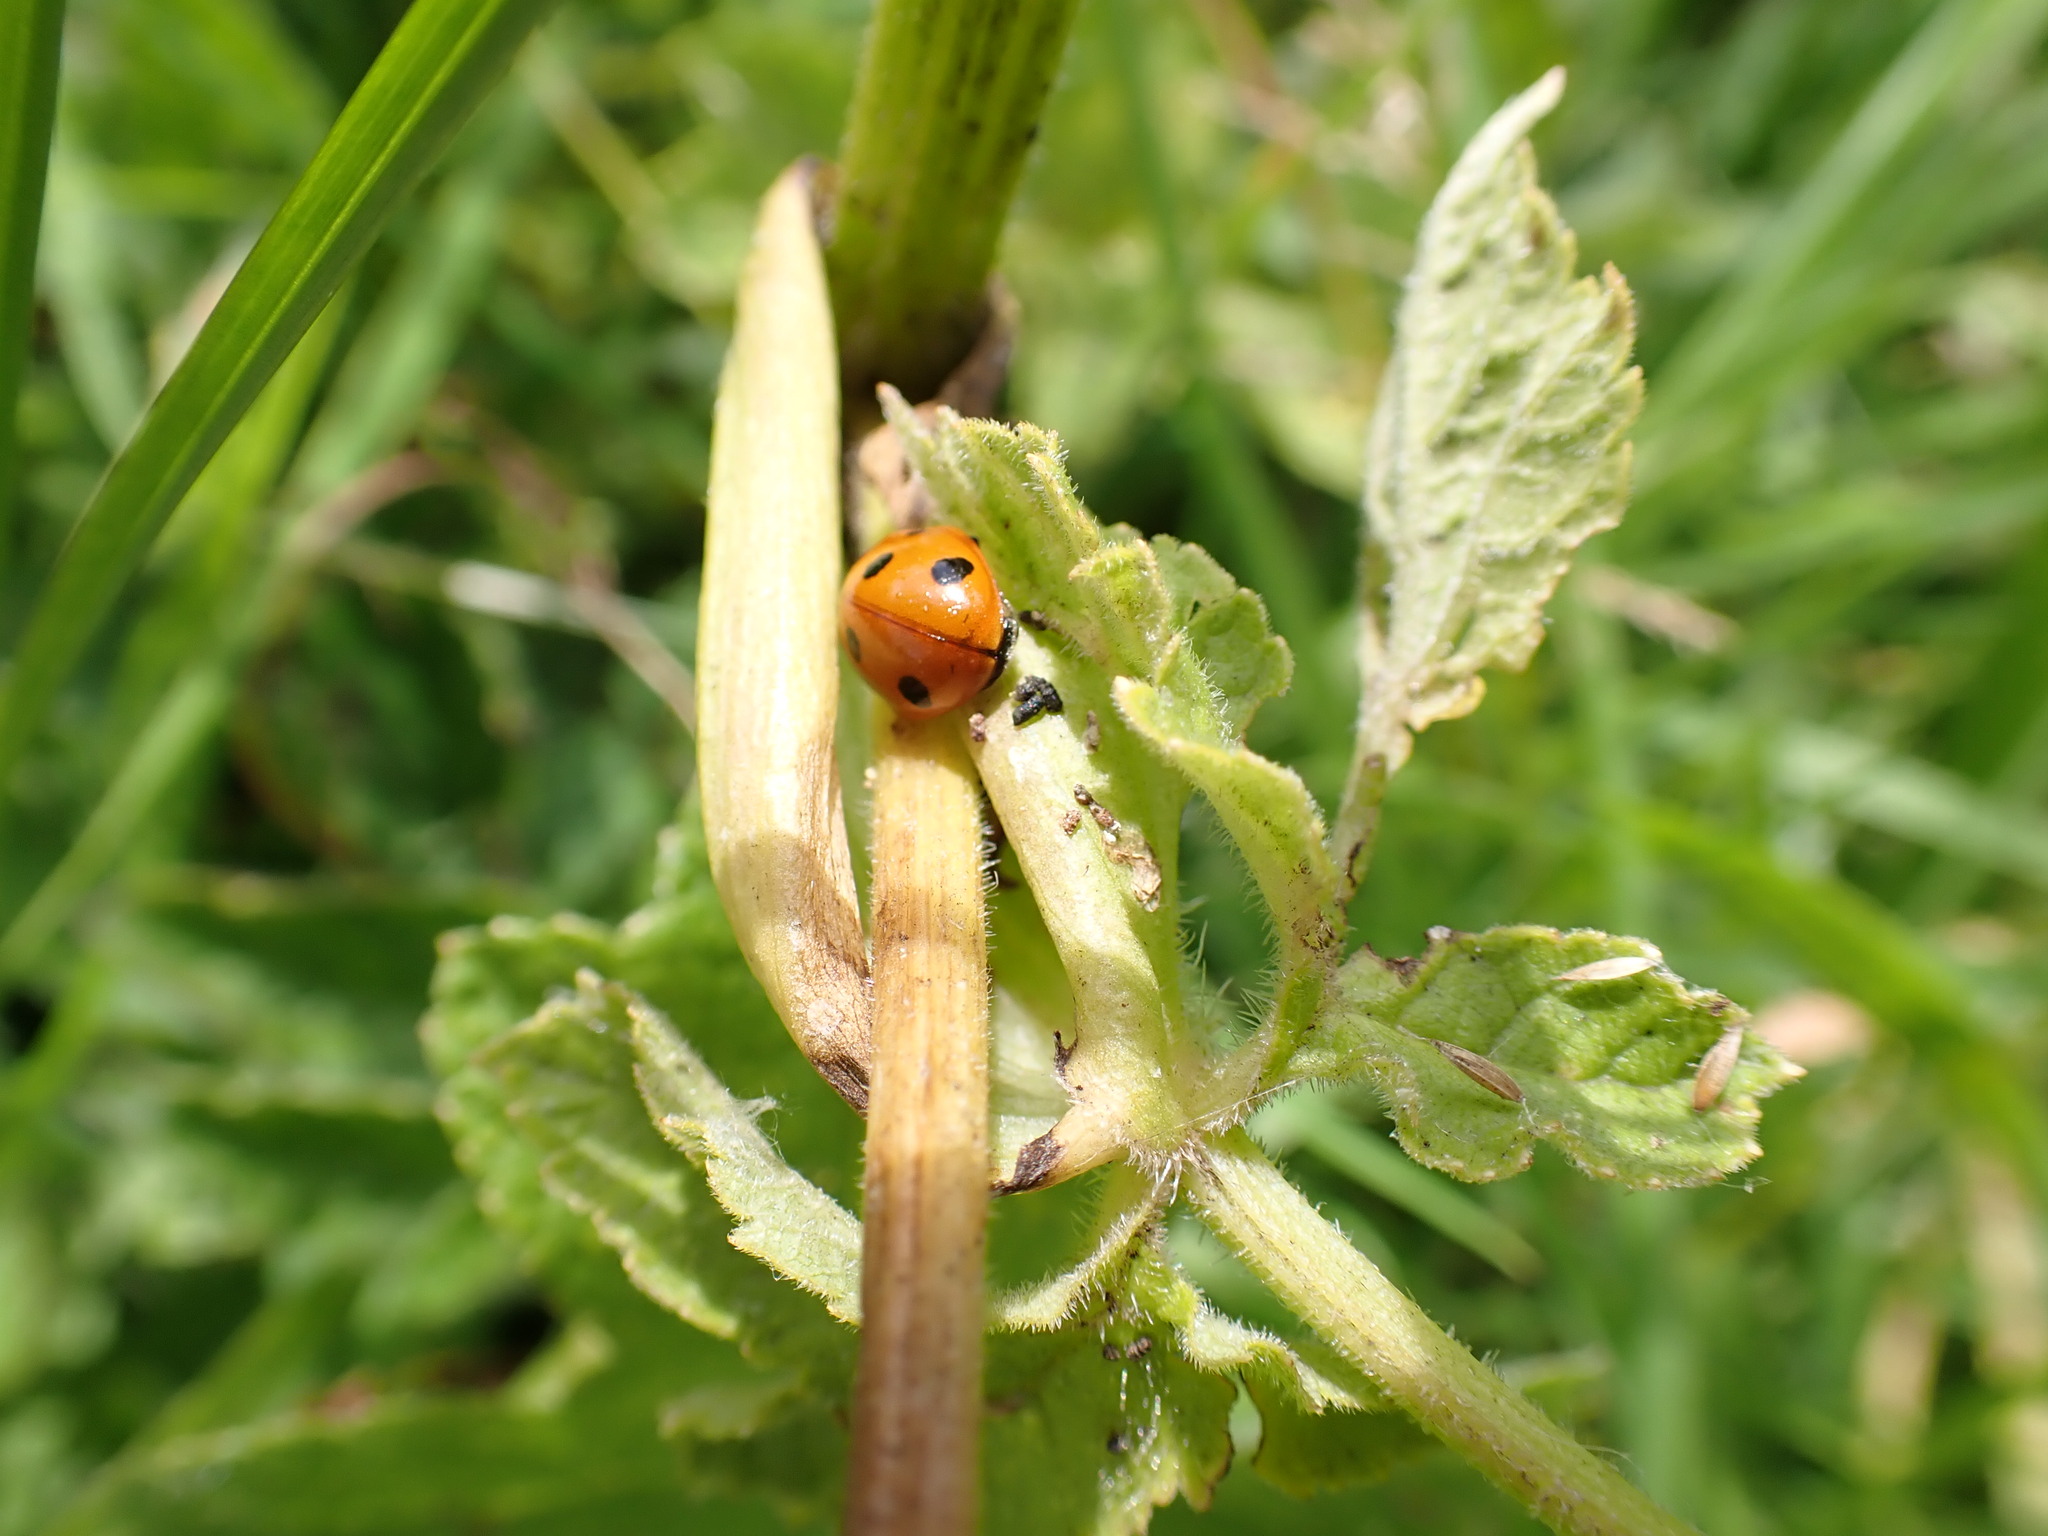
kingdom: Animalia
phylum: Arthropoda
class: Insecta
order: Coleoptera
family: Coccinellidae
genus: Coccinella
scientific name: Coccinella septempunctata
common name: Sevenspotted lady beetle
